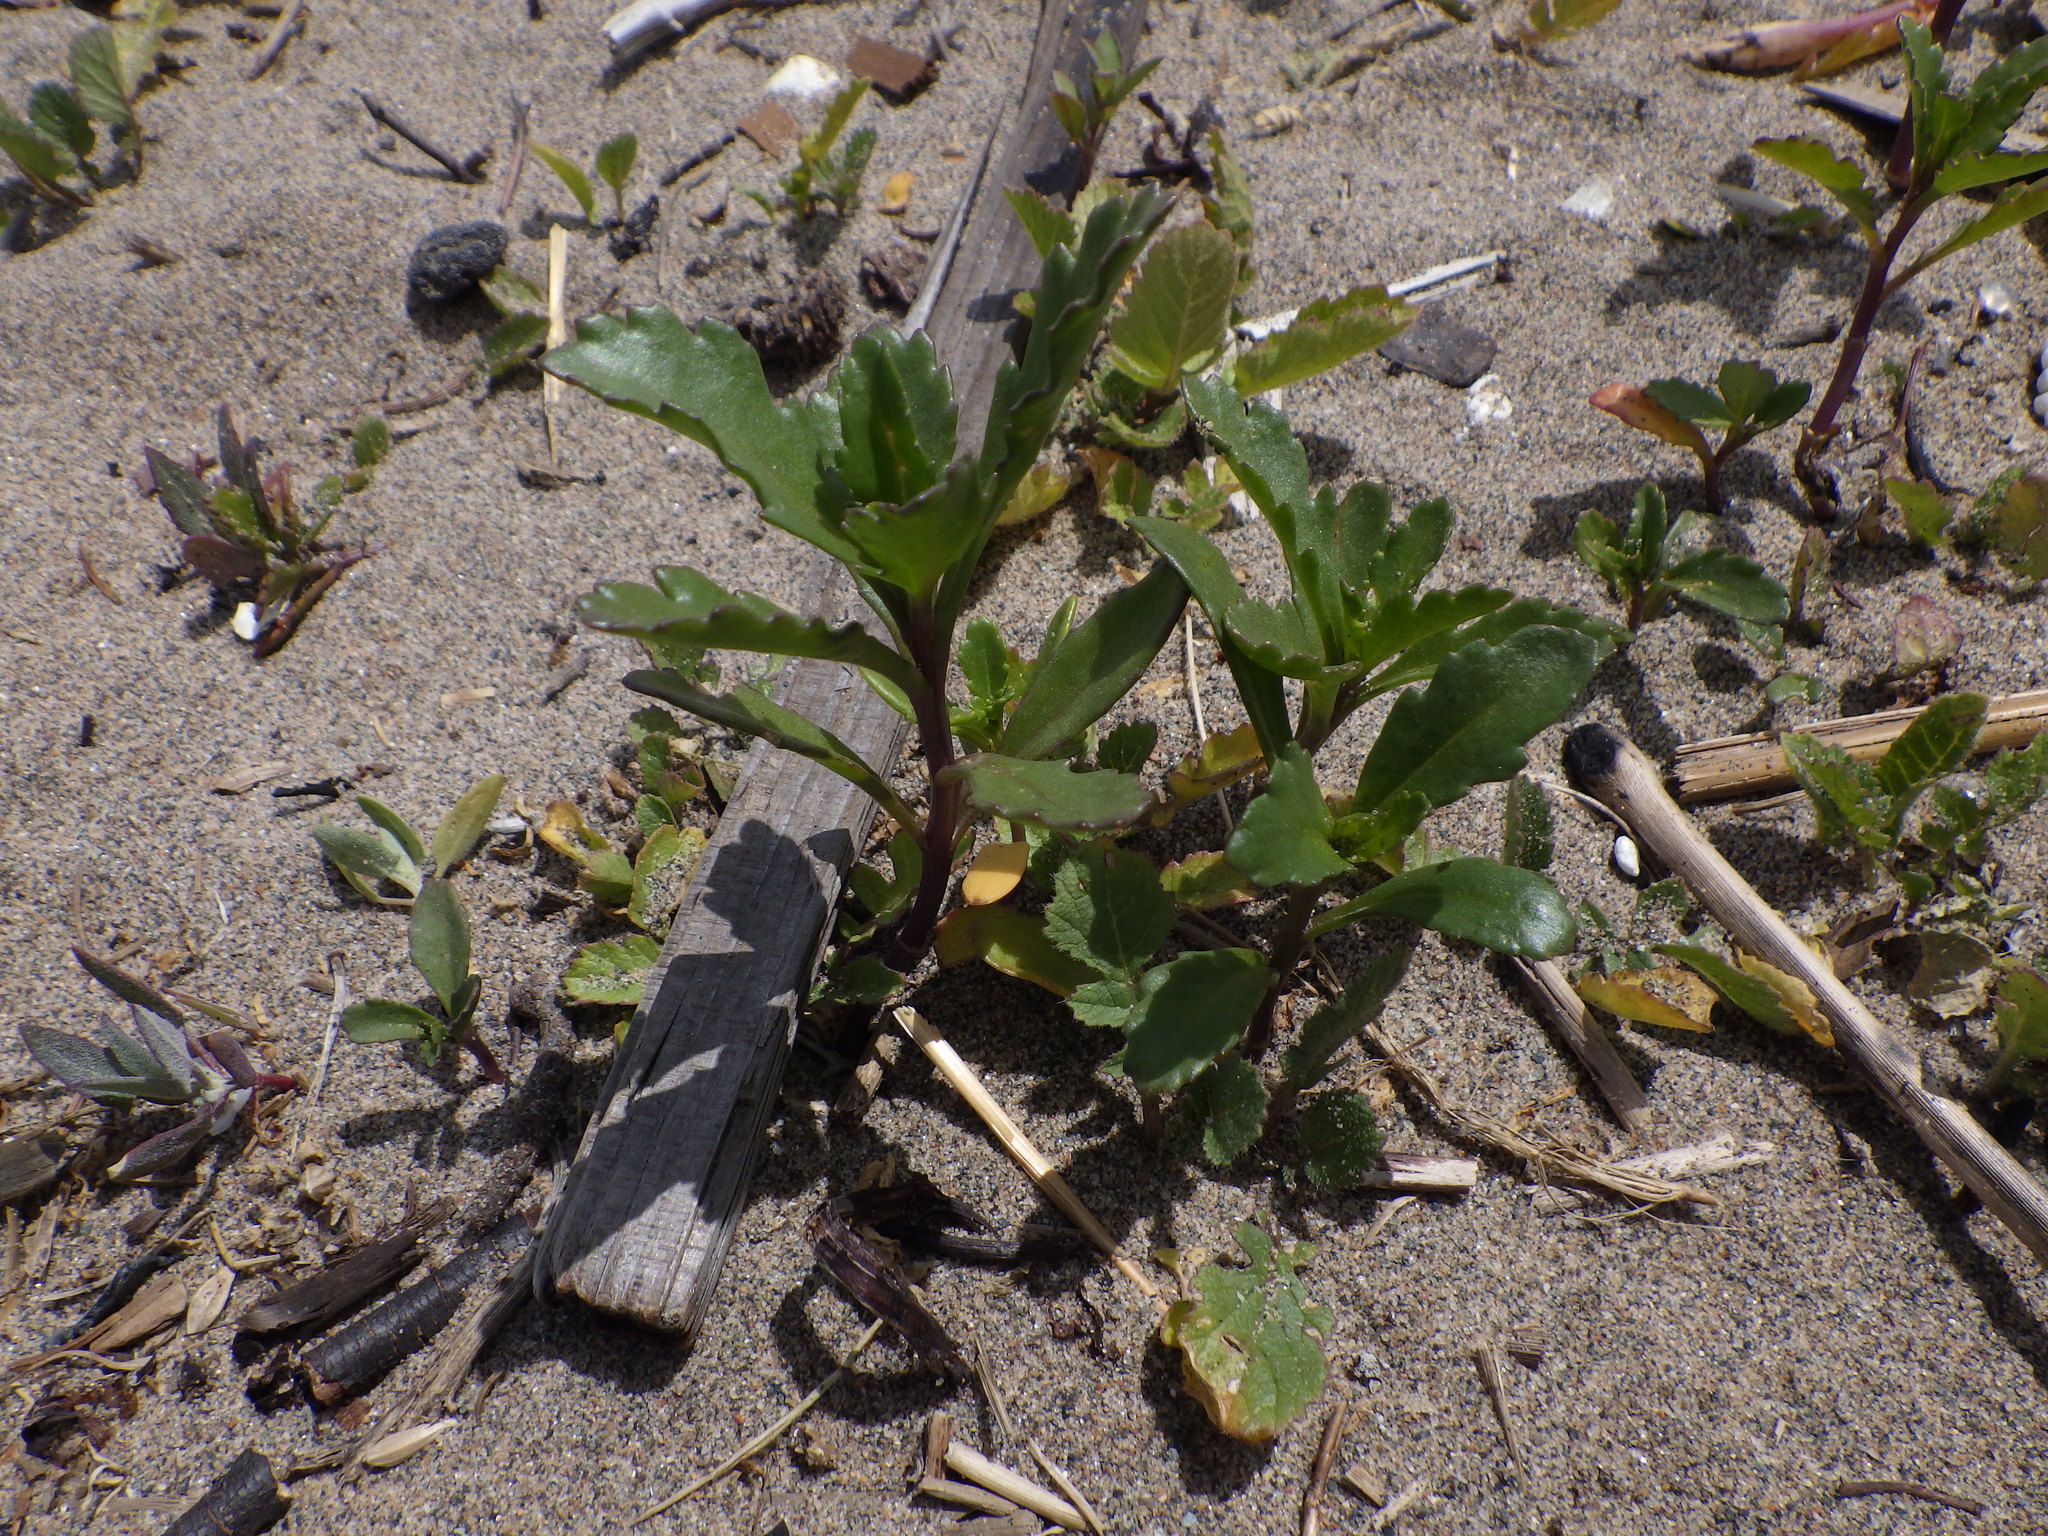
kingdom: Plantae
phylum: Tracheophyta
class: Magnoliopsida
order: Brassicales
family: Brassicaceae
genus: Cakile
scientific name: Cakile edentula
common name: American sea rocket
